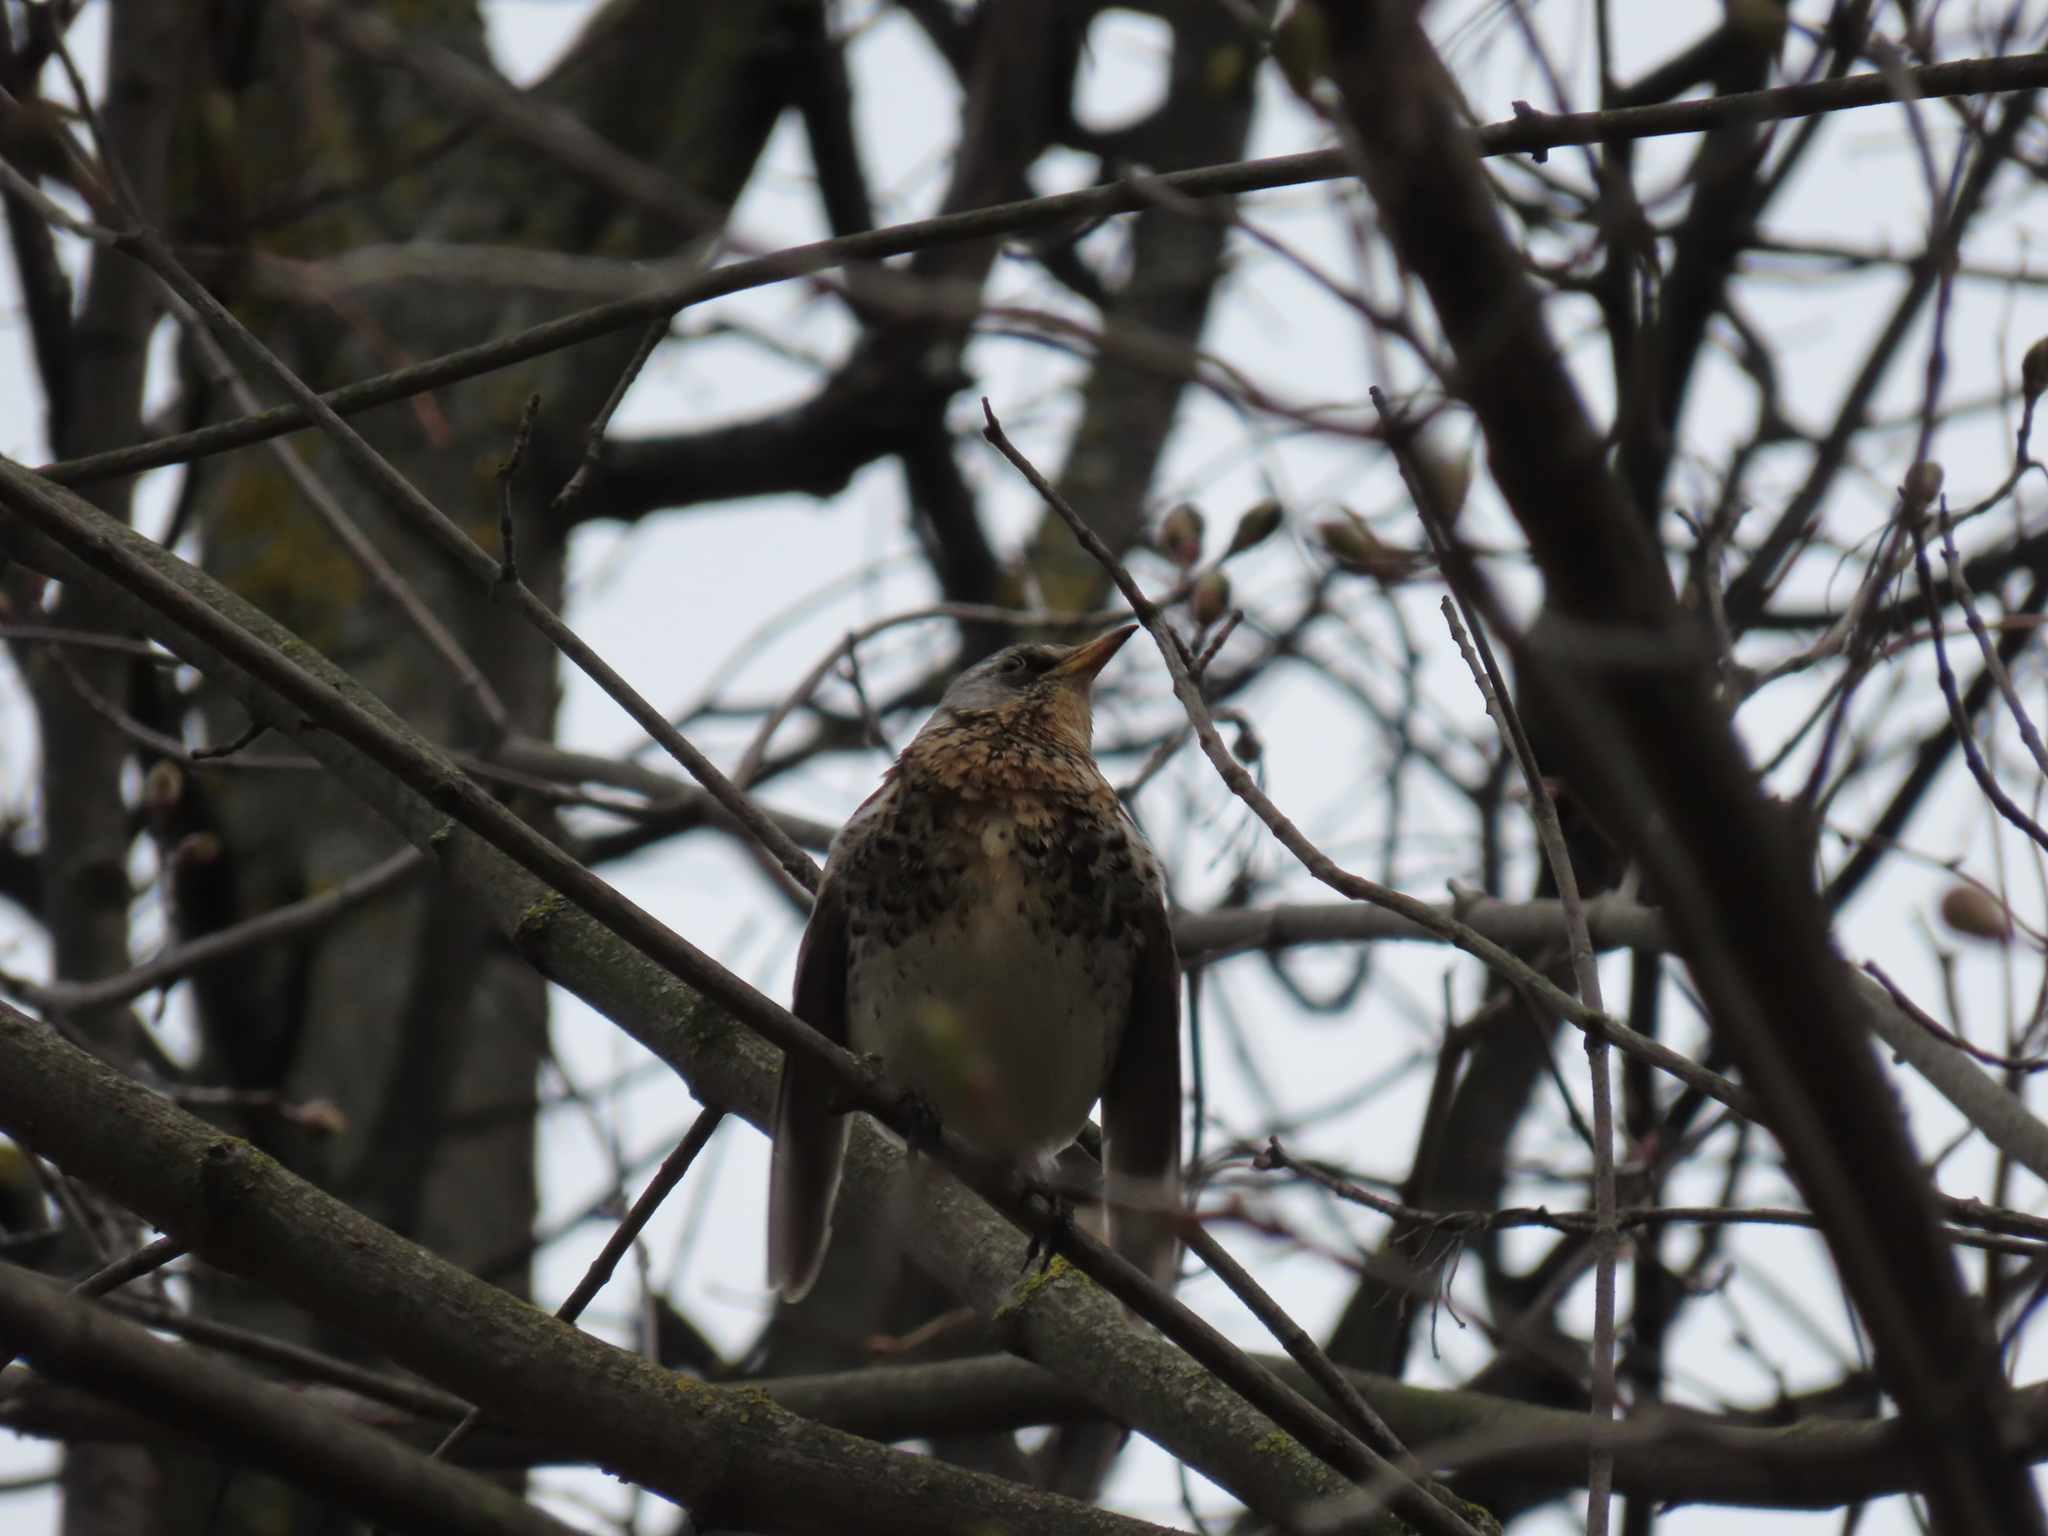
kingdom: Animalia
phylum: Chordata
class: Aves
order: Passeriformes
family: Turdidae
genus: Turdus
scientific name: Turdus pilaris
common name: Fieldfare
